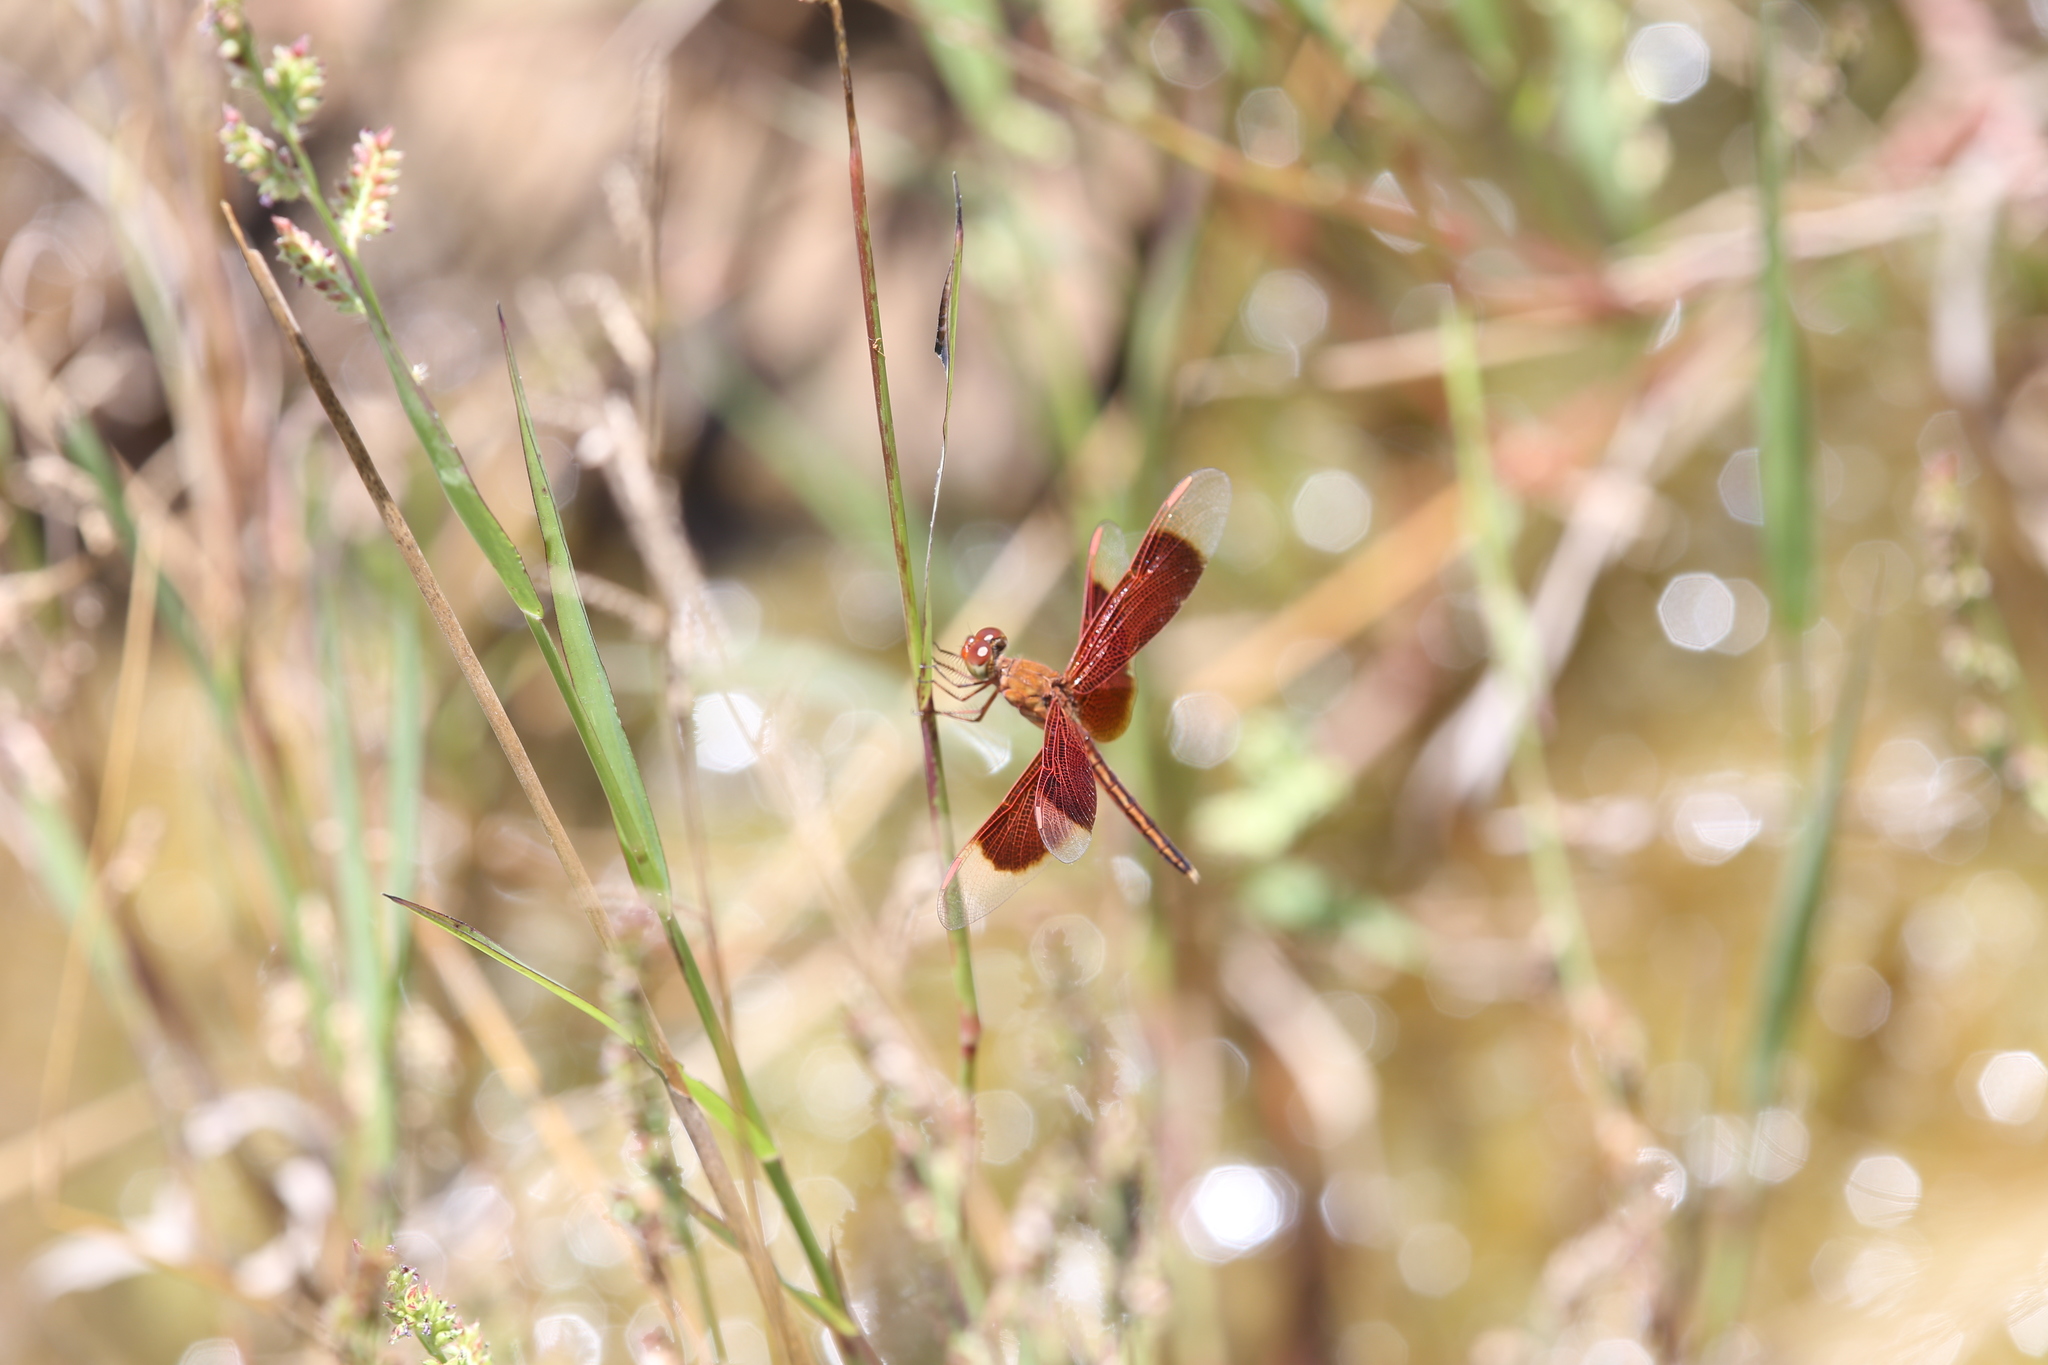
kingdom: Animalia
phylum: Arthropoda
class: Insecta
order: Odonata
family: Libellulidae
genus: Neurothemis
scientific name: Neurothemis stigmatizans
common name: Painted grasshawk
